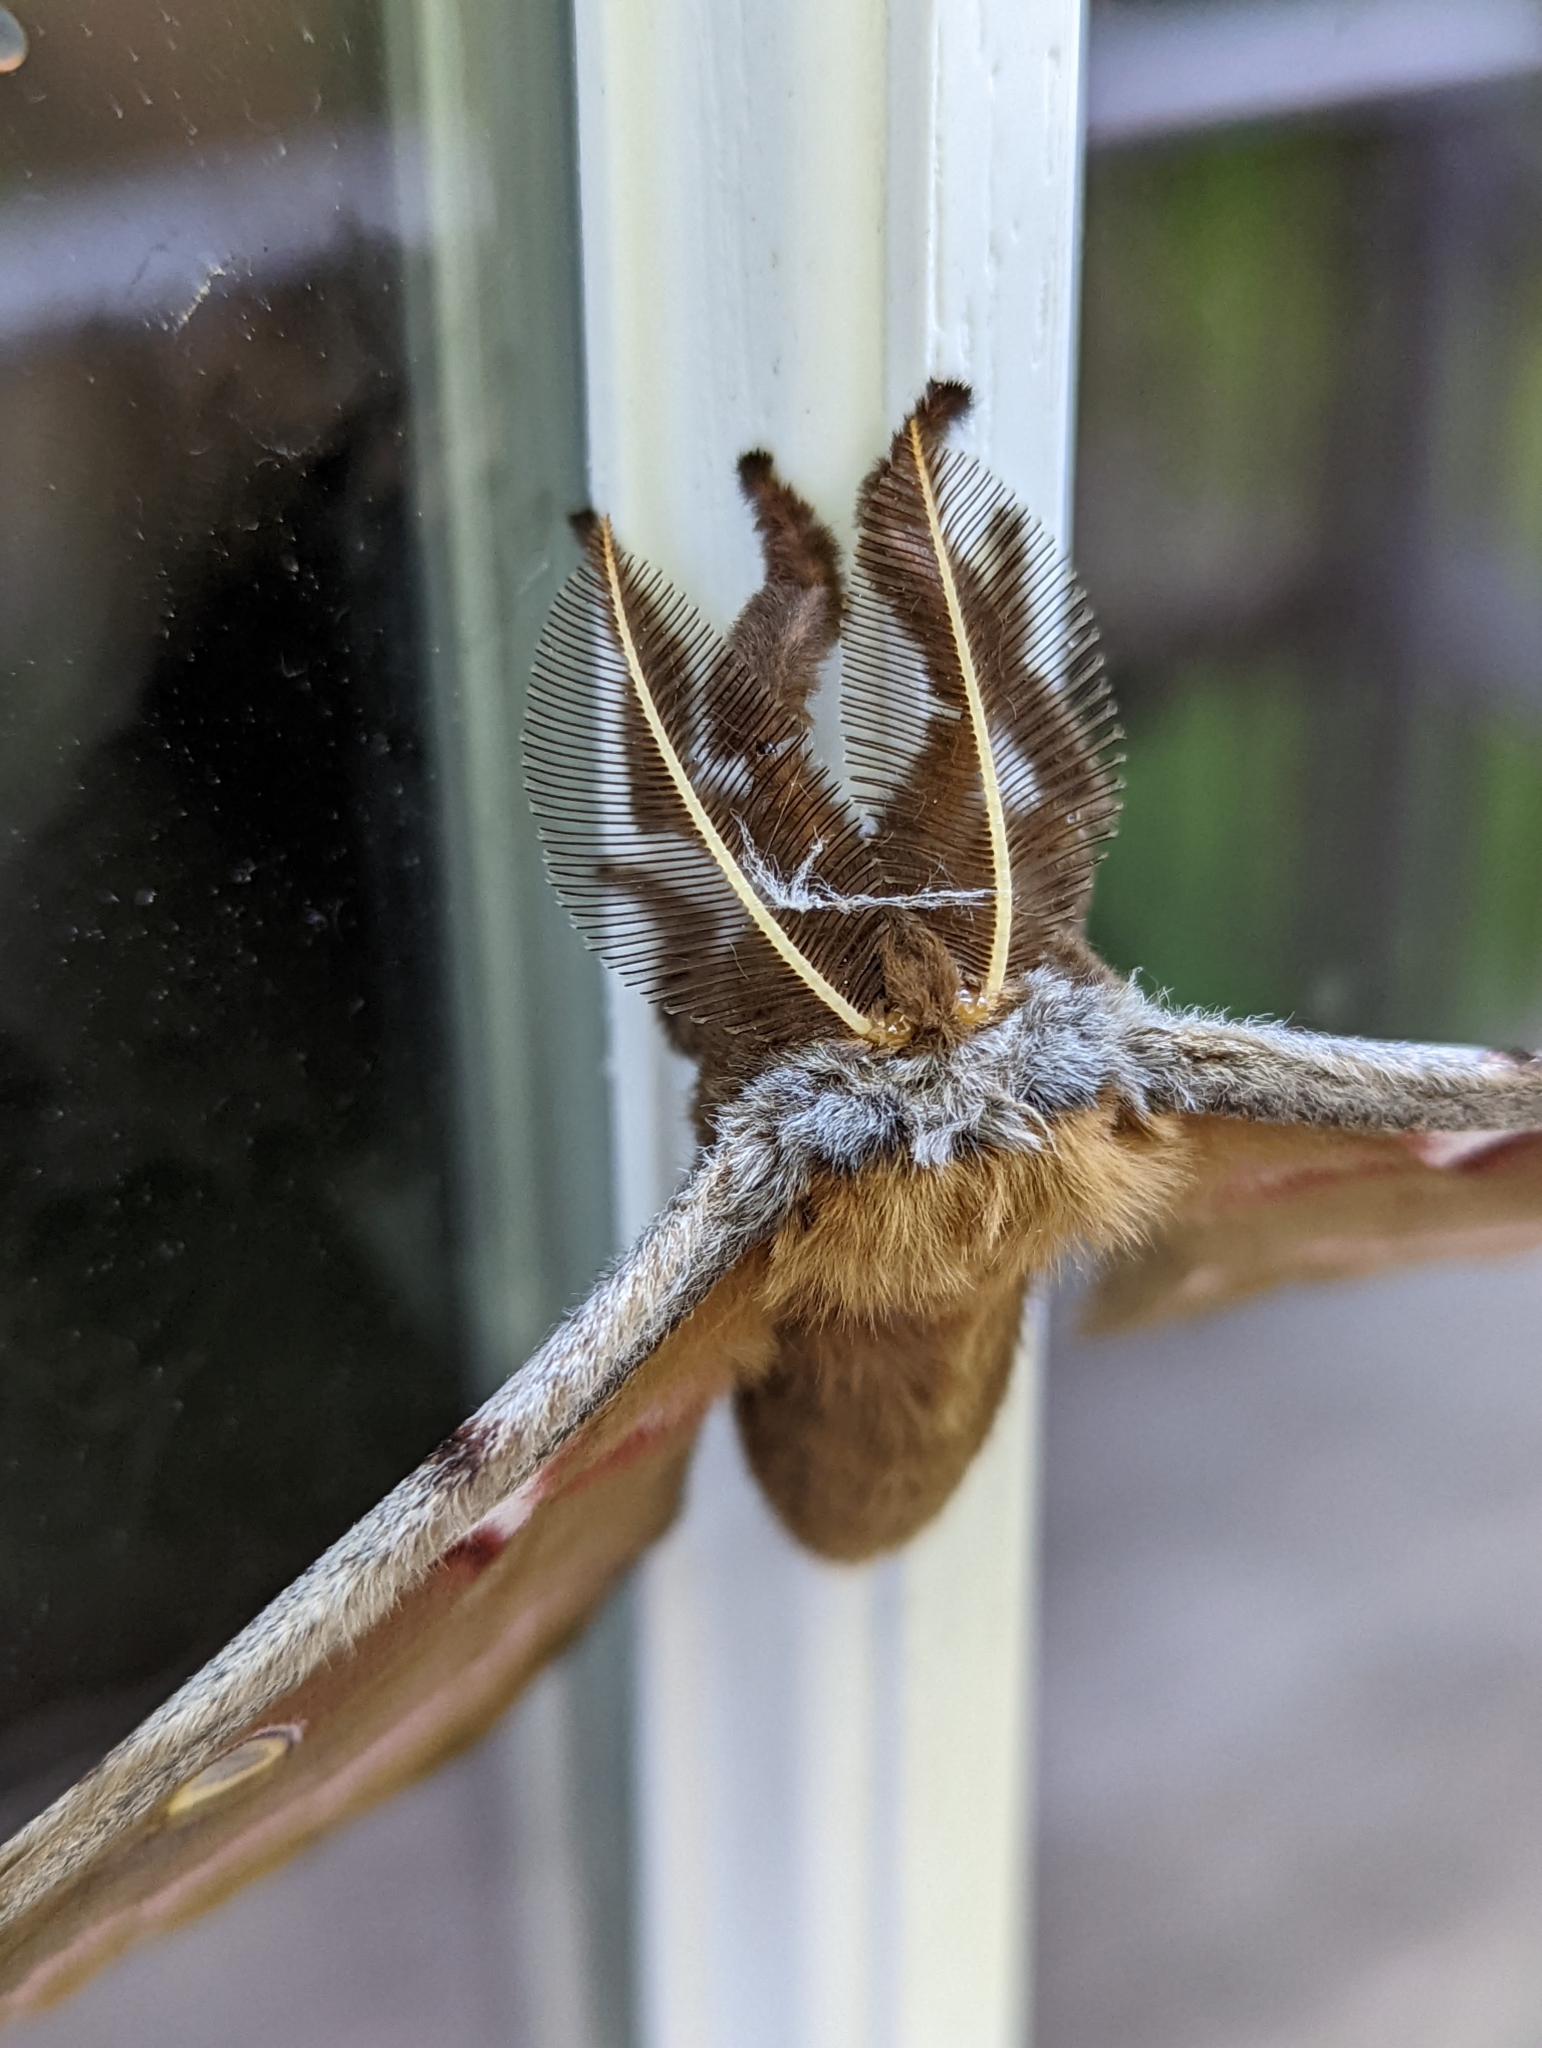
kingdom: Animalia
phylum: Arthropoda
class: Insecta
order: Lepidoptera
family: Saturniidae
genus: Antheraea
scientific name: Antheraea polyphemus
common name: Polyphemus moth
